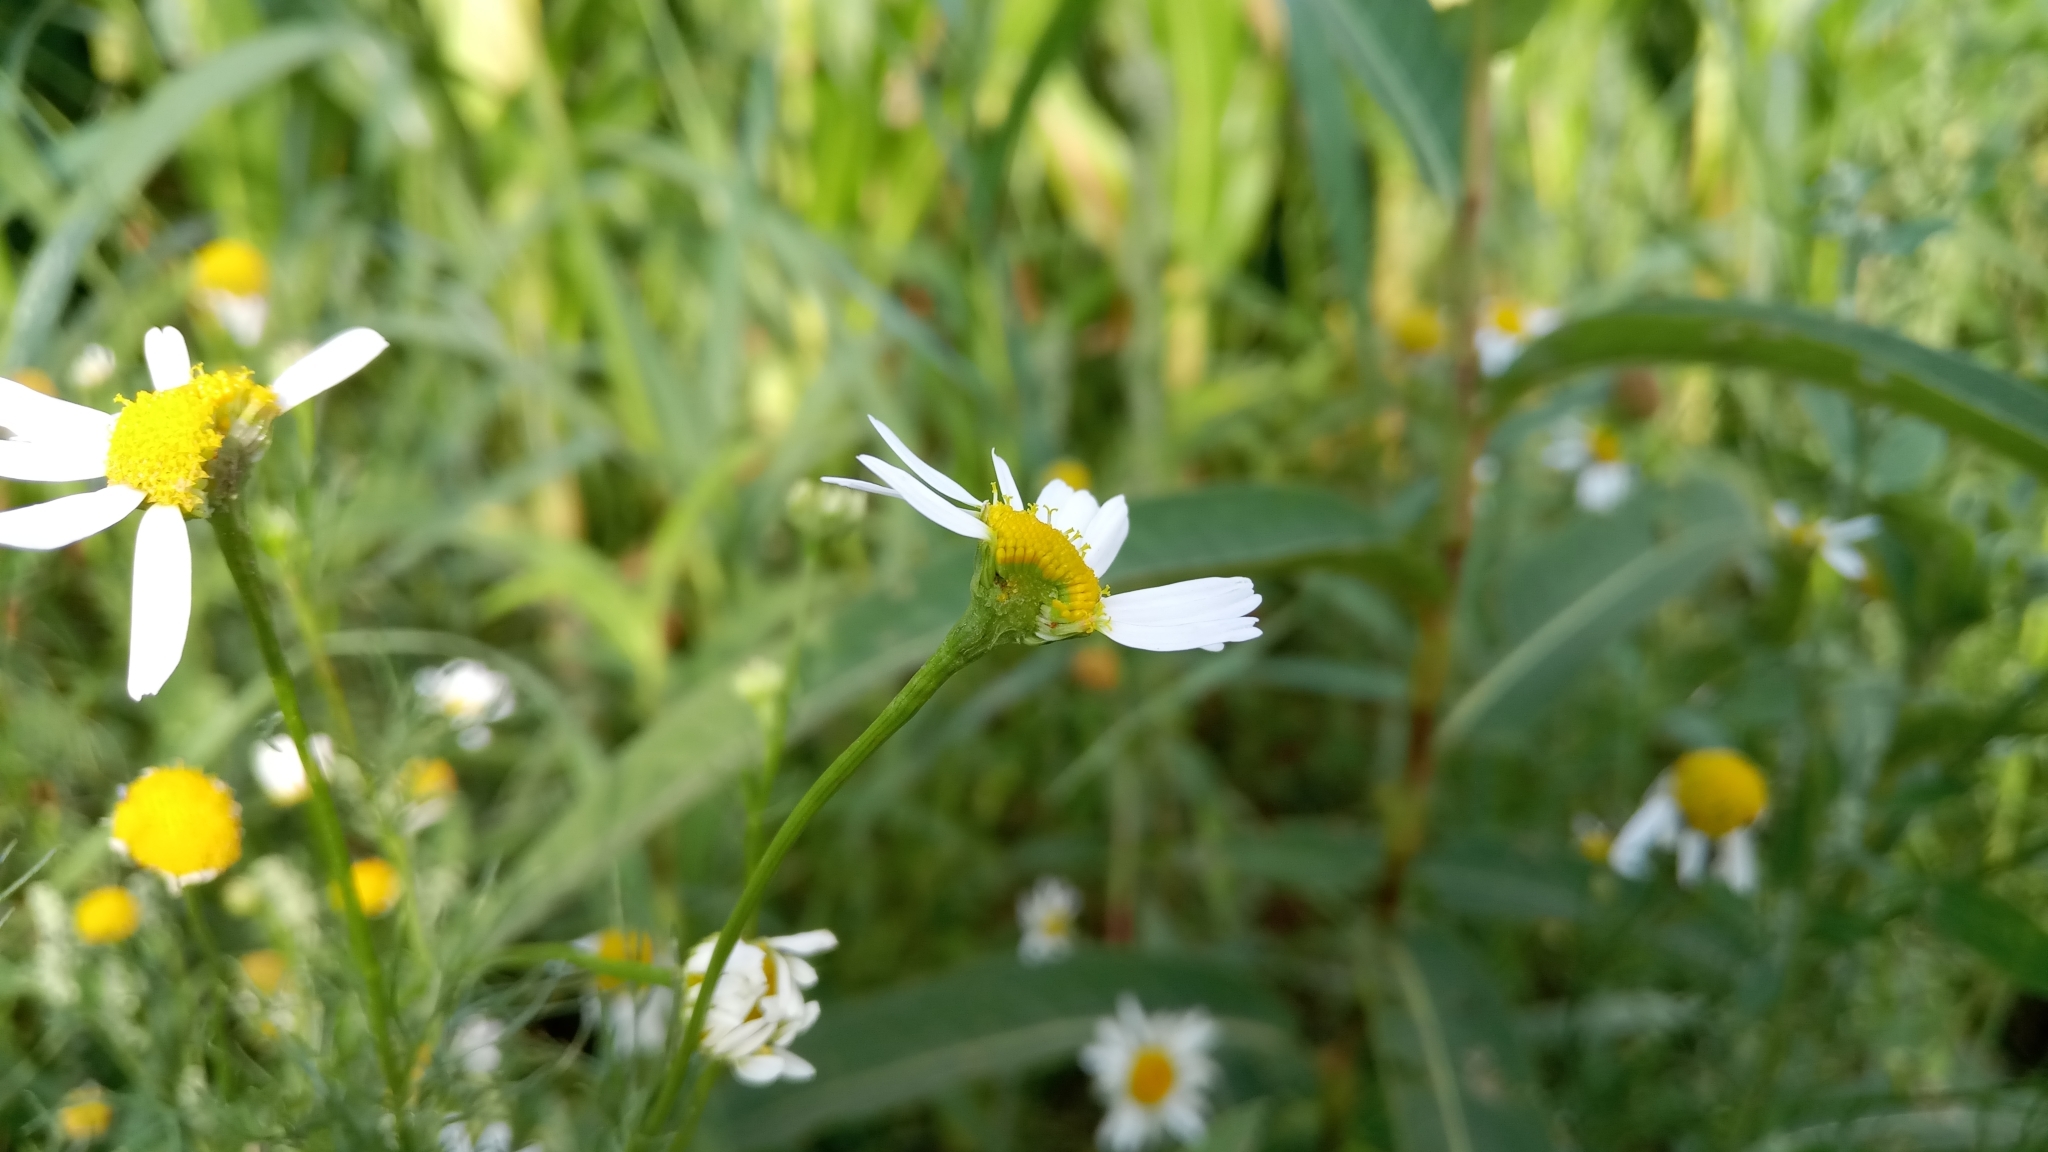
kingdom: Plantae
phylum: Tracheophyta
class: Magnoliopsida
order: Asterales
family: Asteraceae
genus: Tripleurospermum
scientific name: Tripleurospermum inodorum
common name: Scentless mayweed
